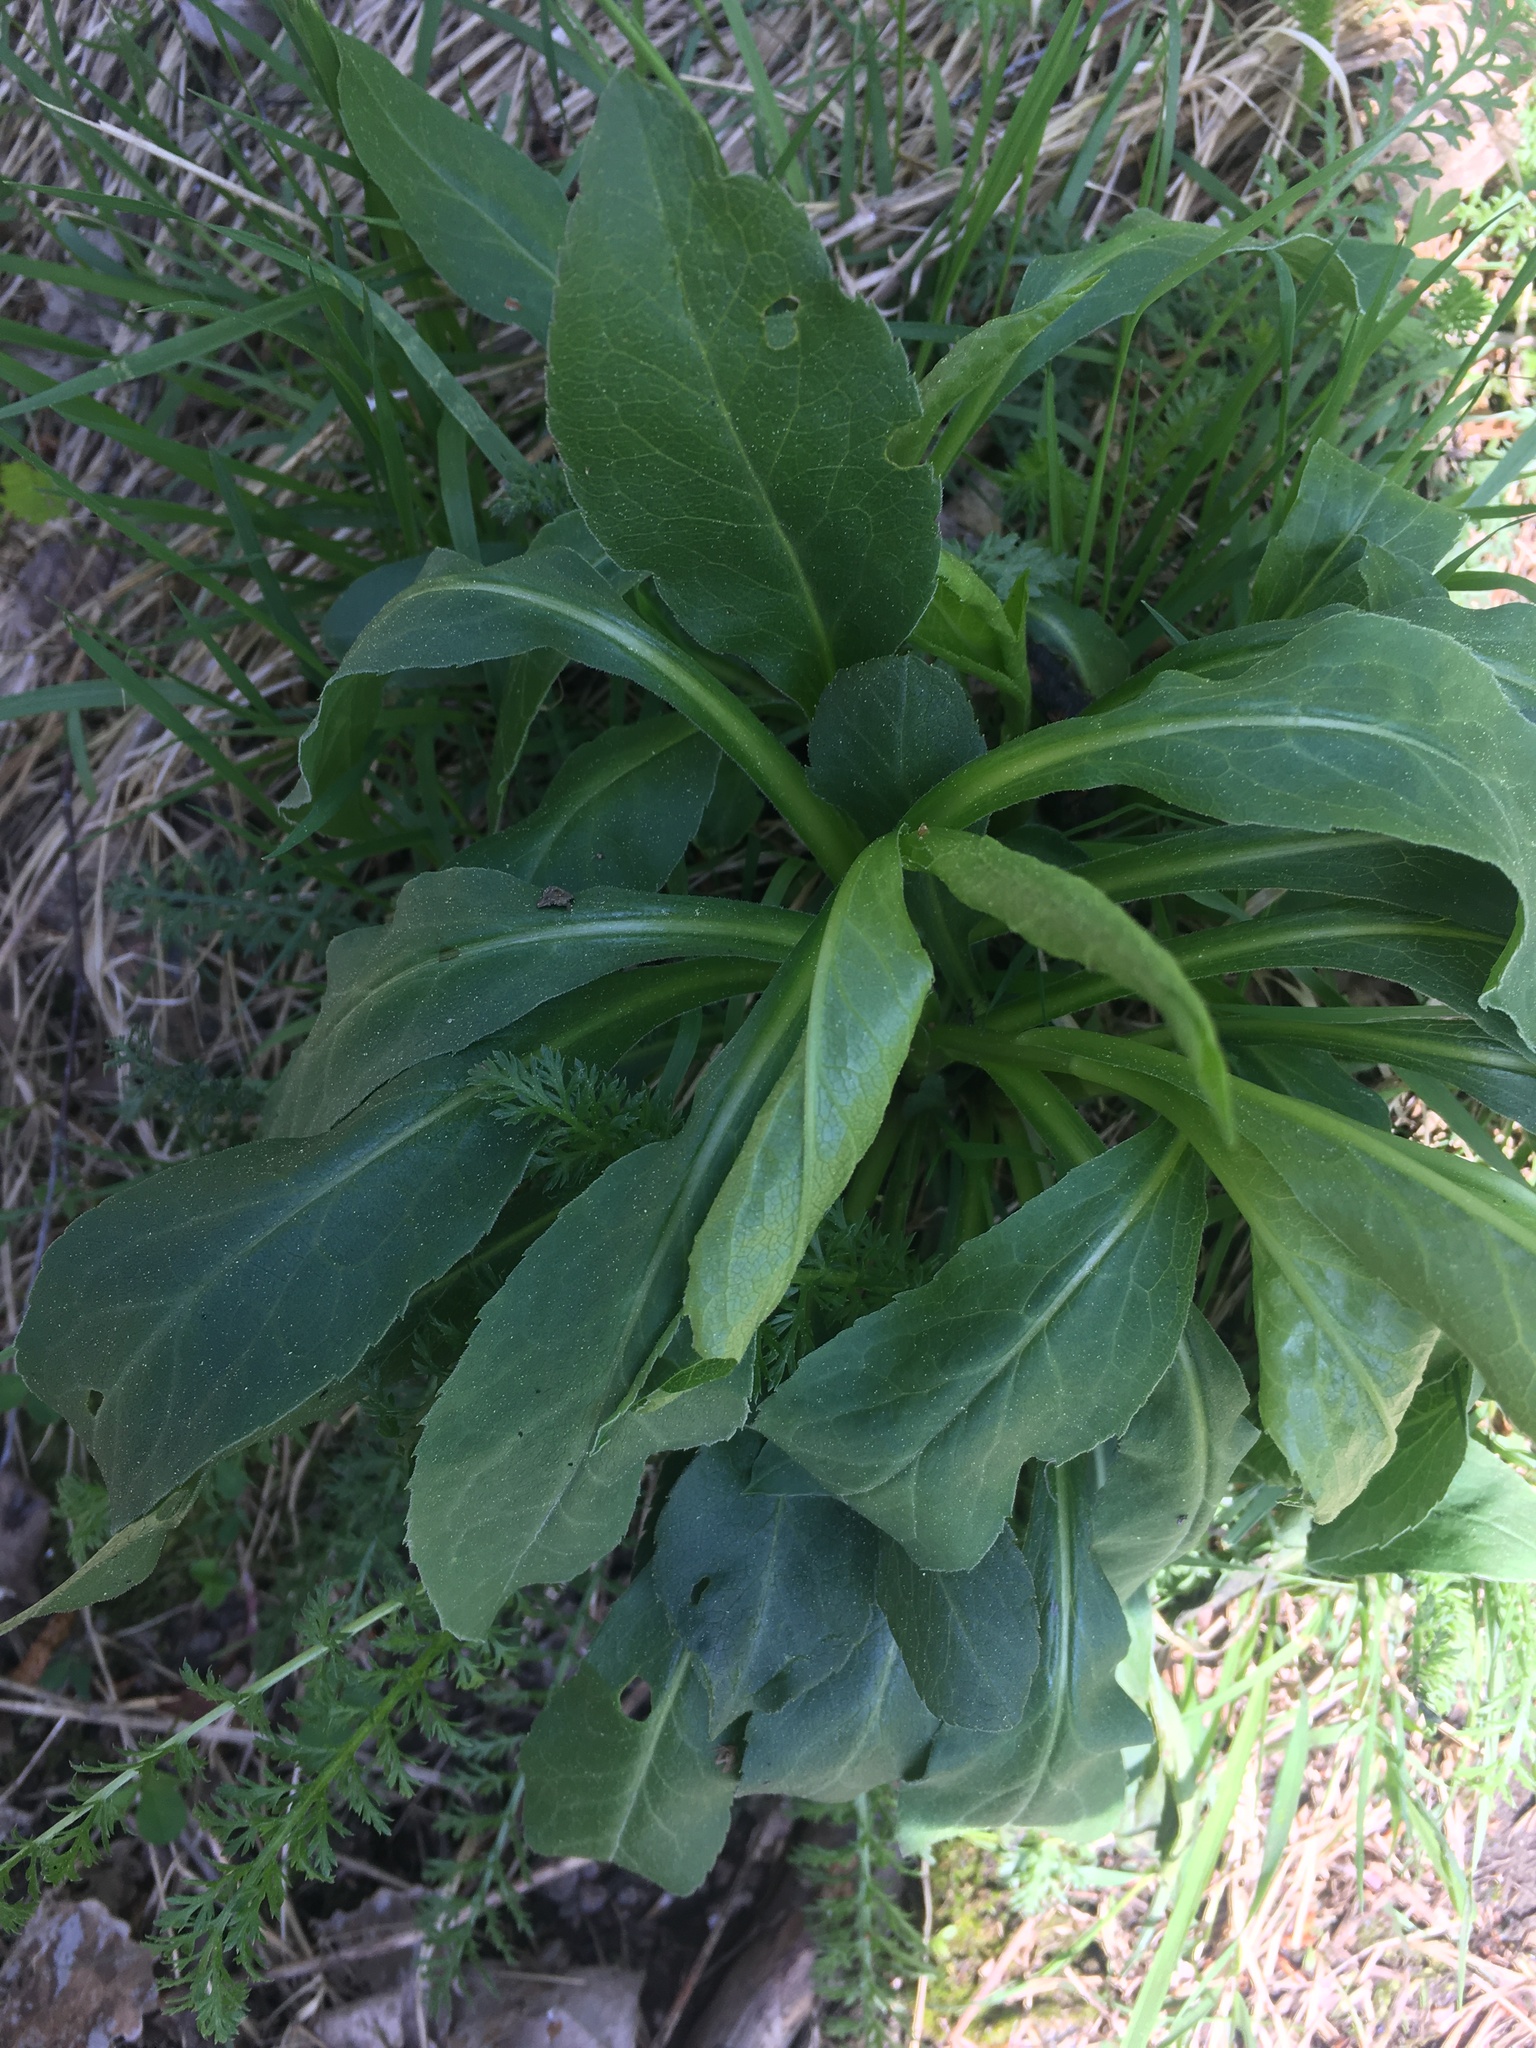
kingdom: Plantae
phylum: Tracheophyta
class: Magnoliopsida
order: Asterales
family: Asteraceae
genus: Solidago
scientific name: Solidago virgaurea
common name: Goldenrod
